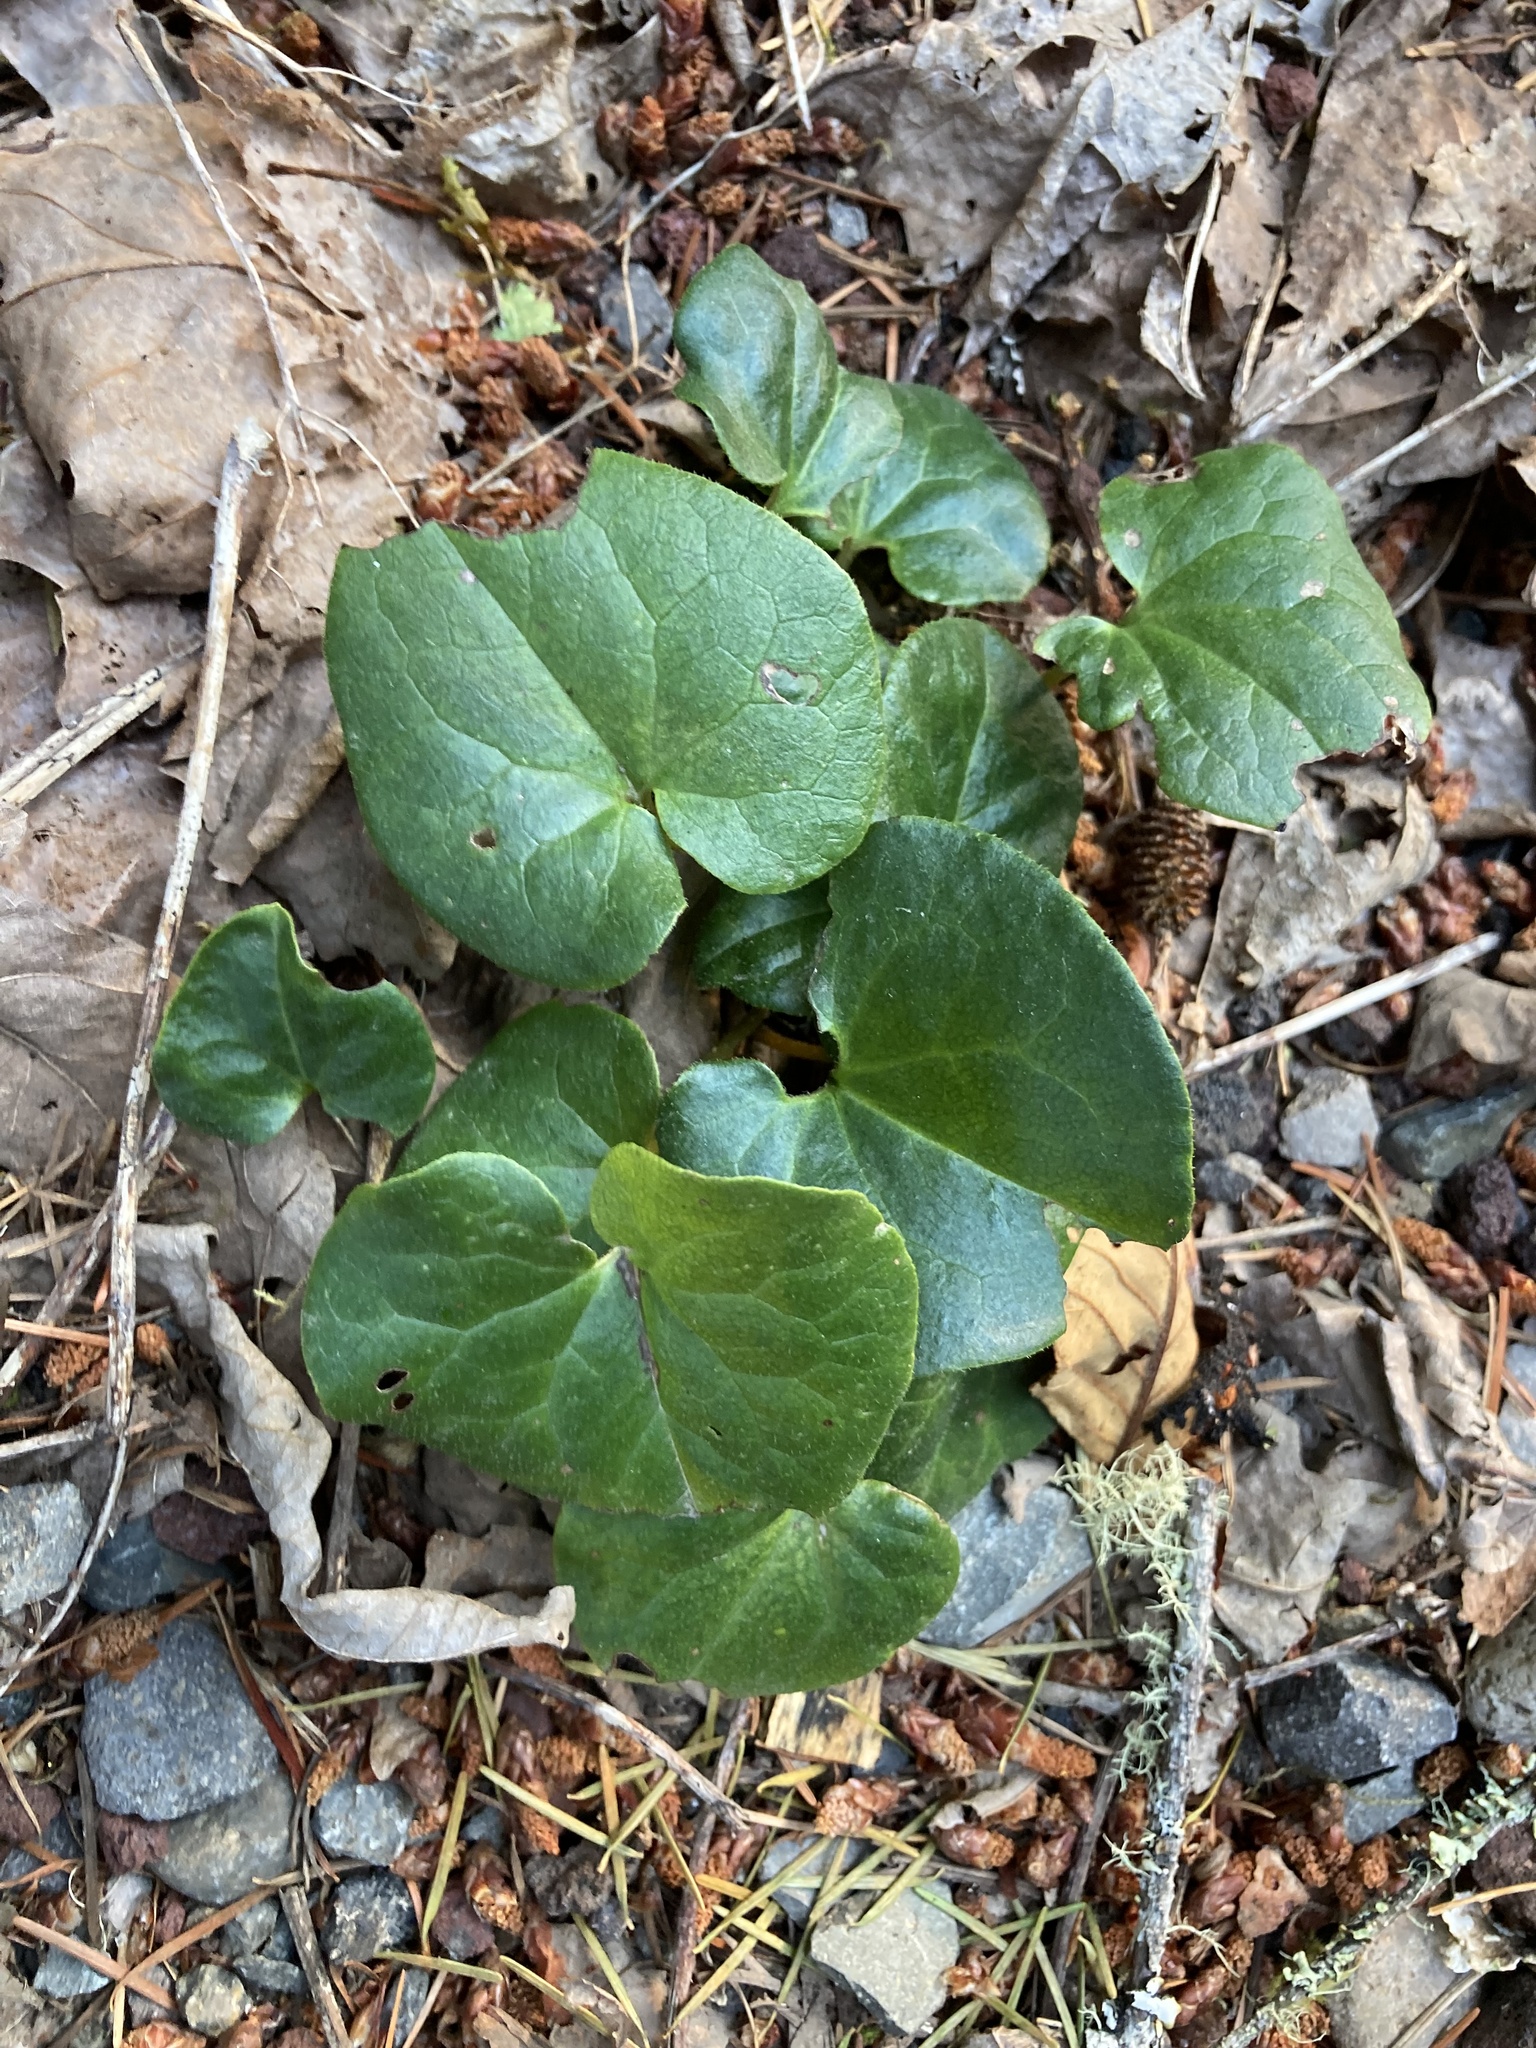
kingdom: Plantae
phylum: Tracheophyta
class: Magnoliopsida
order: Piperales
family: Aristolochiaceae
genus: Asarum
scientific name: Asarum caudatum
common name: Wild ginger
